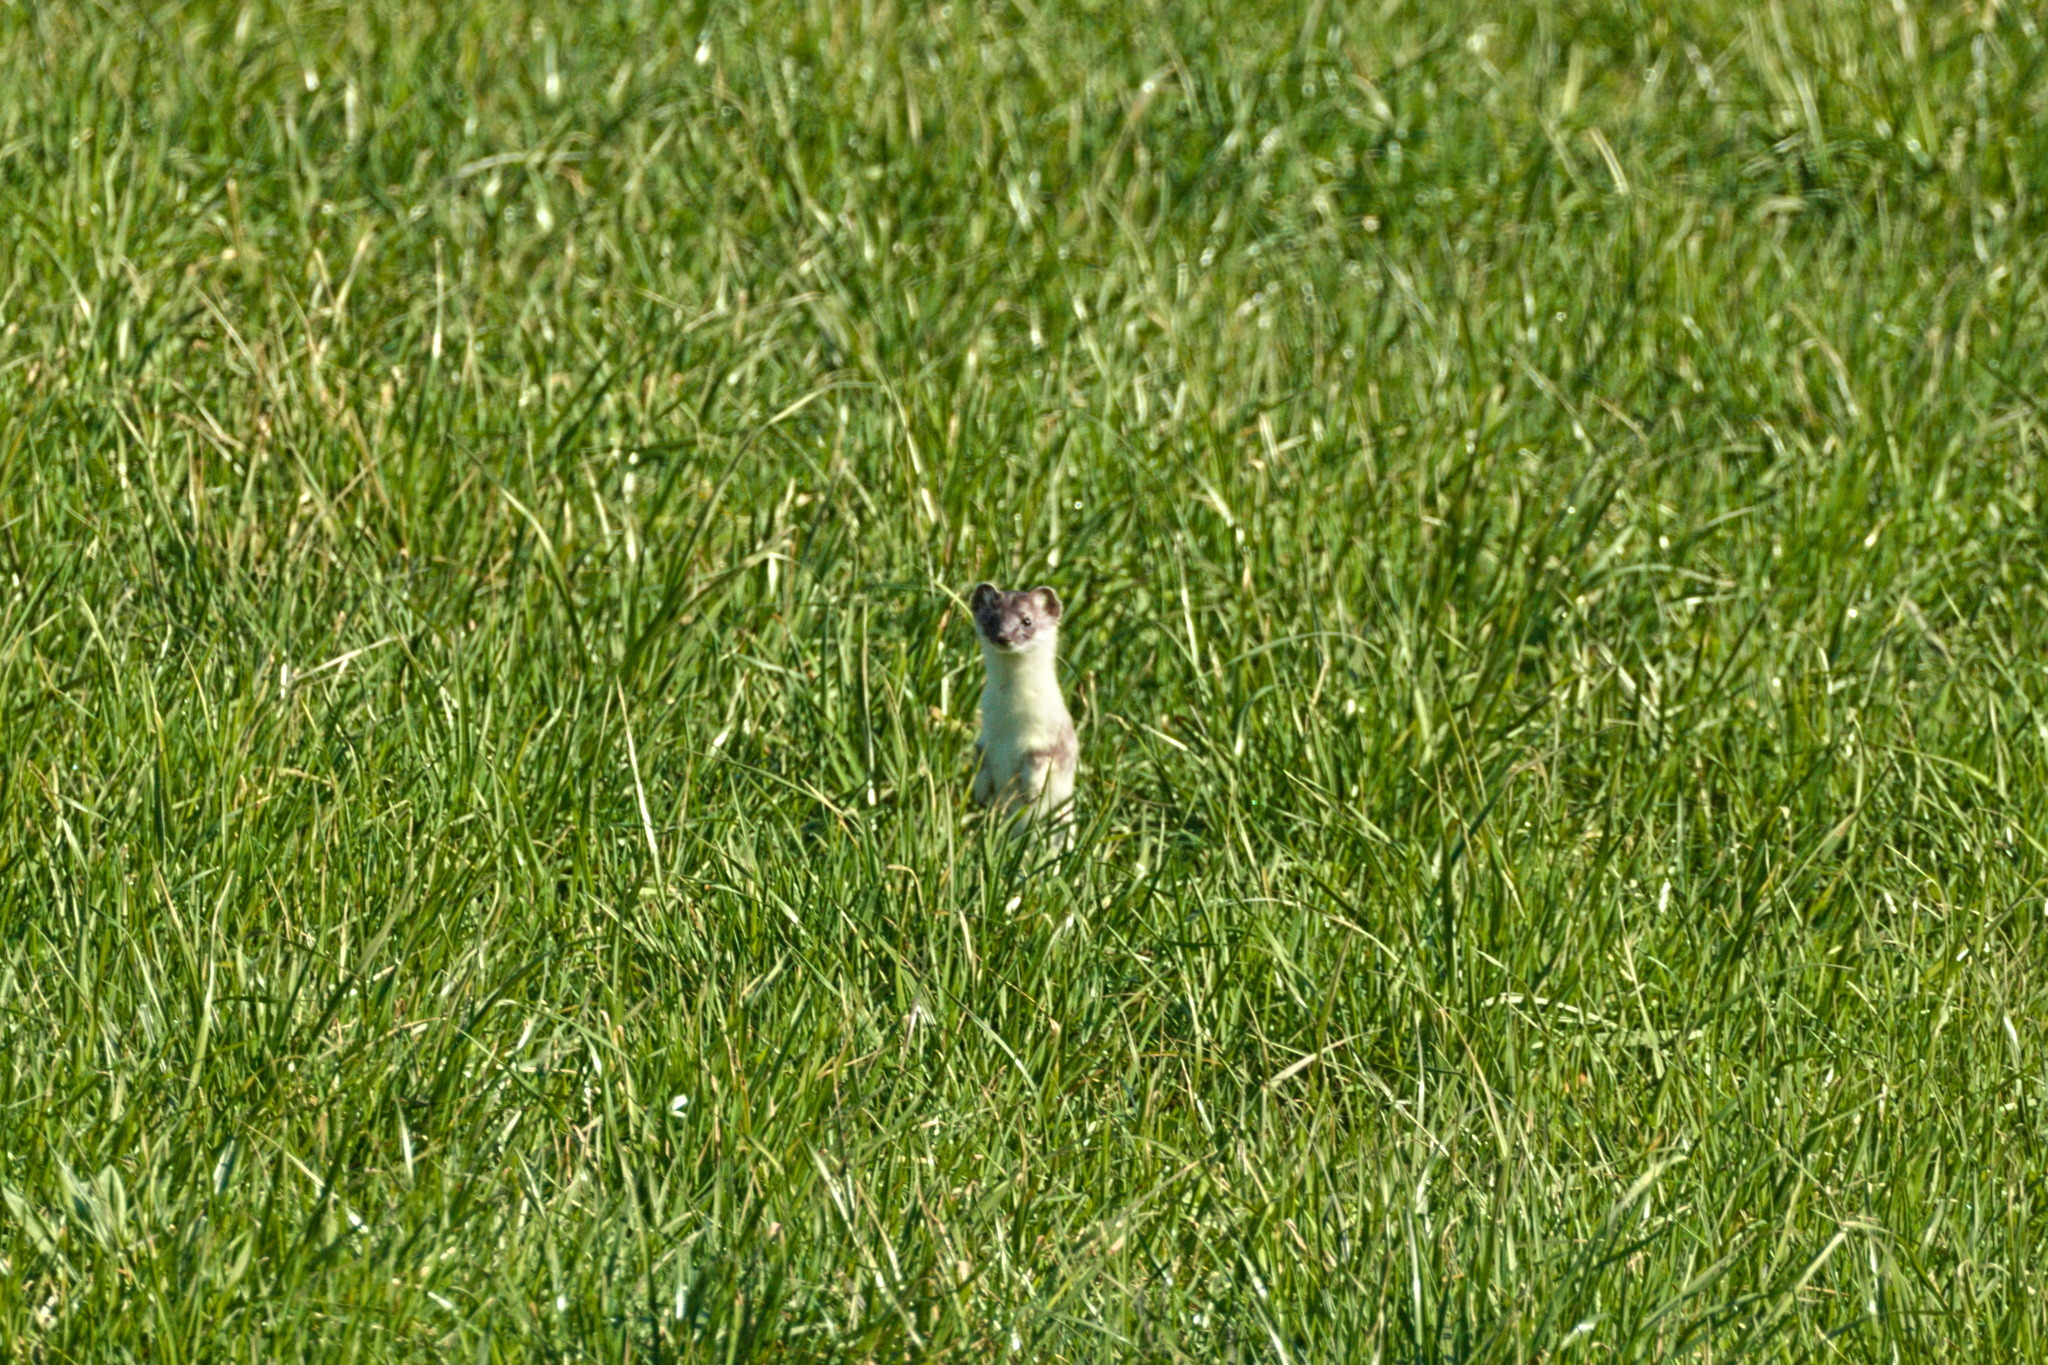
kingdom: Animalia
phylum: Chordata
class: Mammalia
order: Carnivora
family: Mustelidae
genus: Mustela
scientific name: Mustela erminea
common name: Stoat
